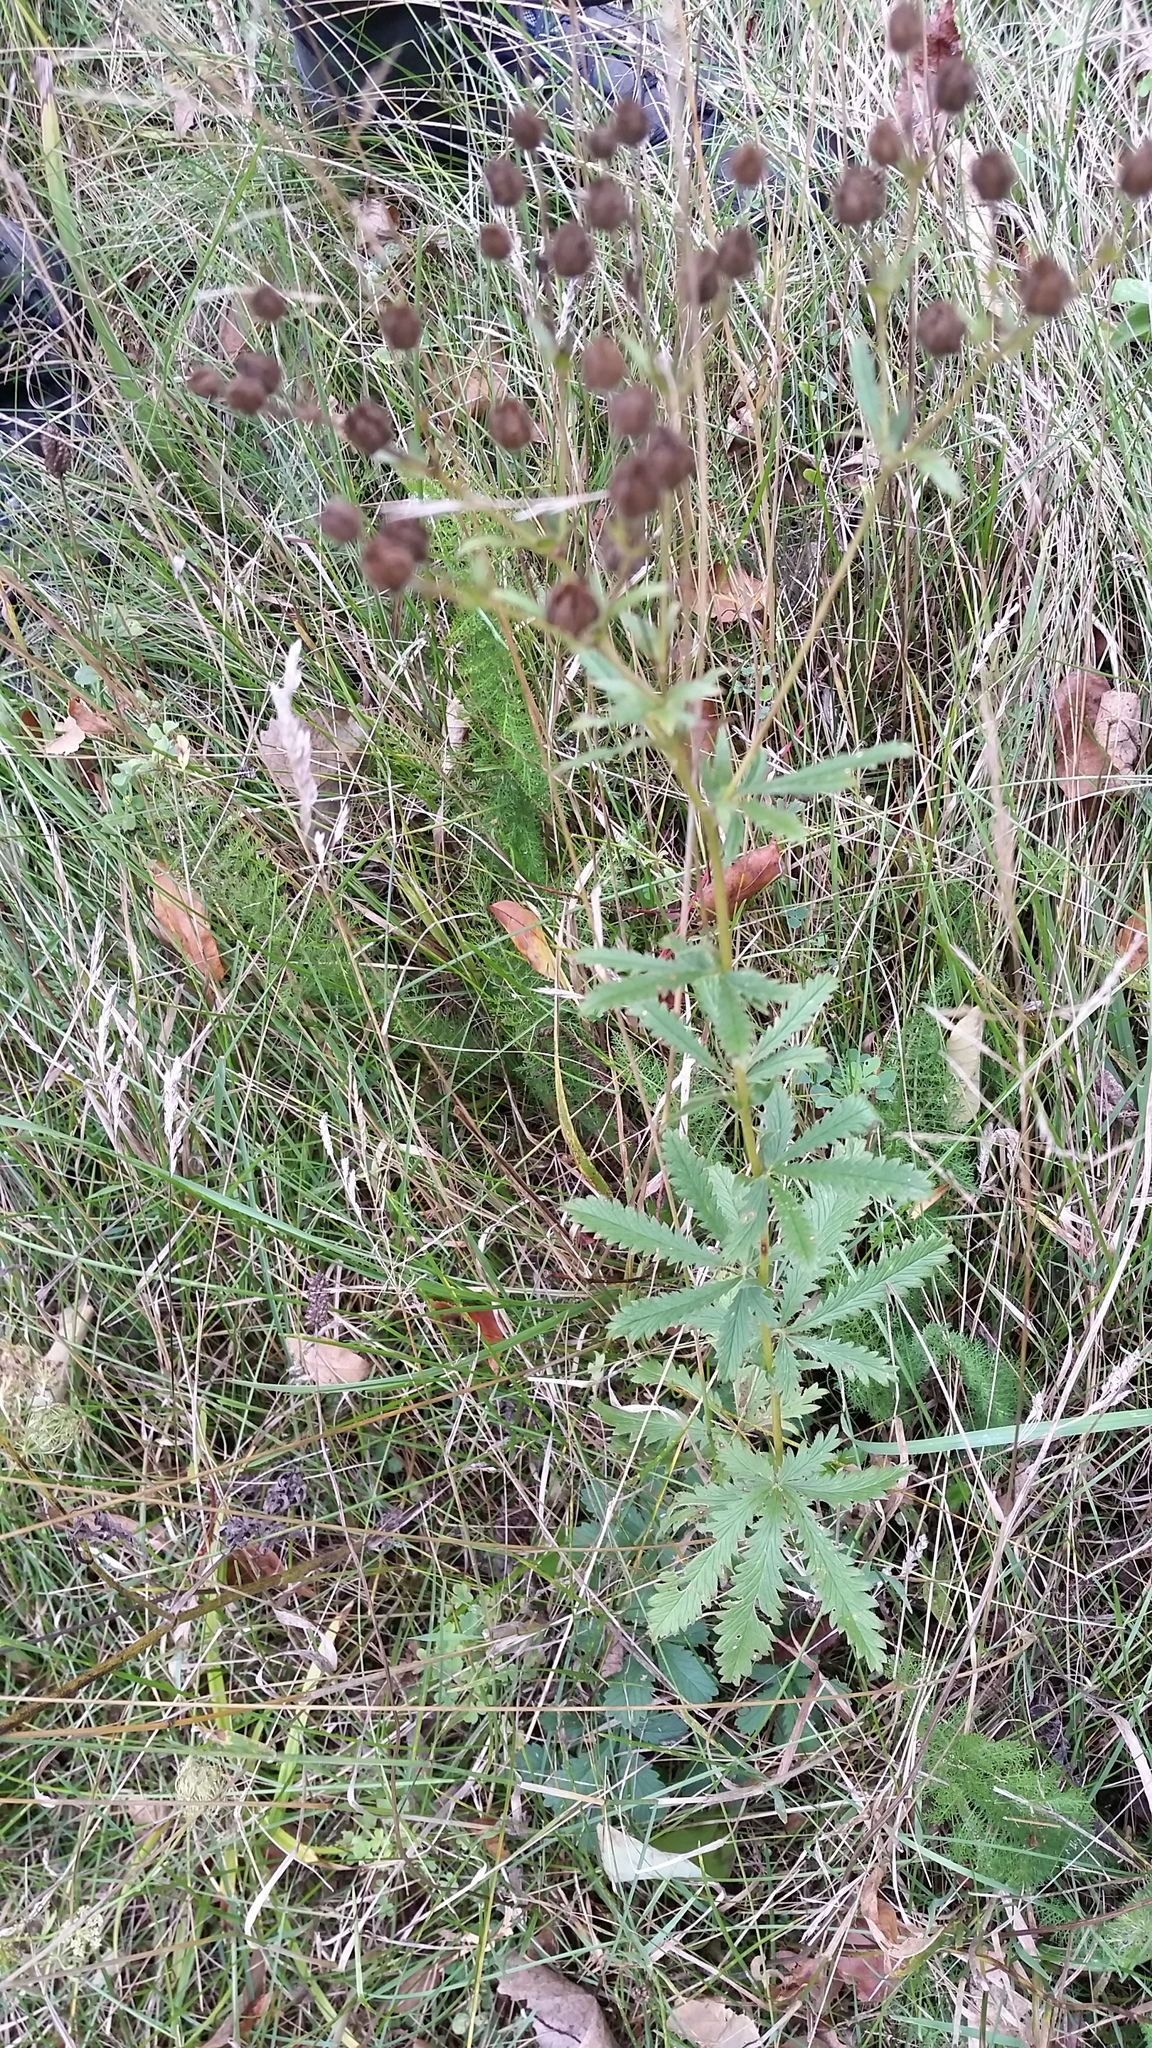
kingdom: Plantae
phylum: Tracheophyta
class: Magnoliopsida
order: Rosales
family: Rosaceae
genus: Potentilla
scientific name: Potentilla recta
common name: Sulphur cinquefoil
